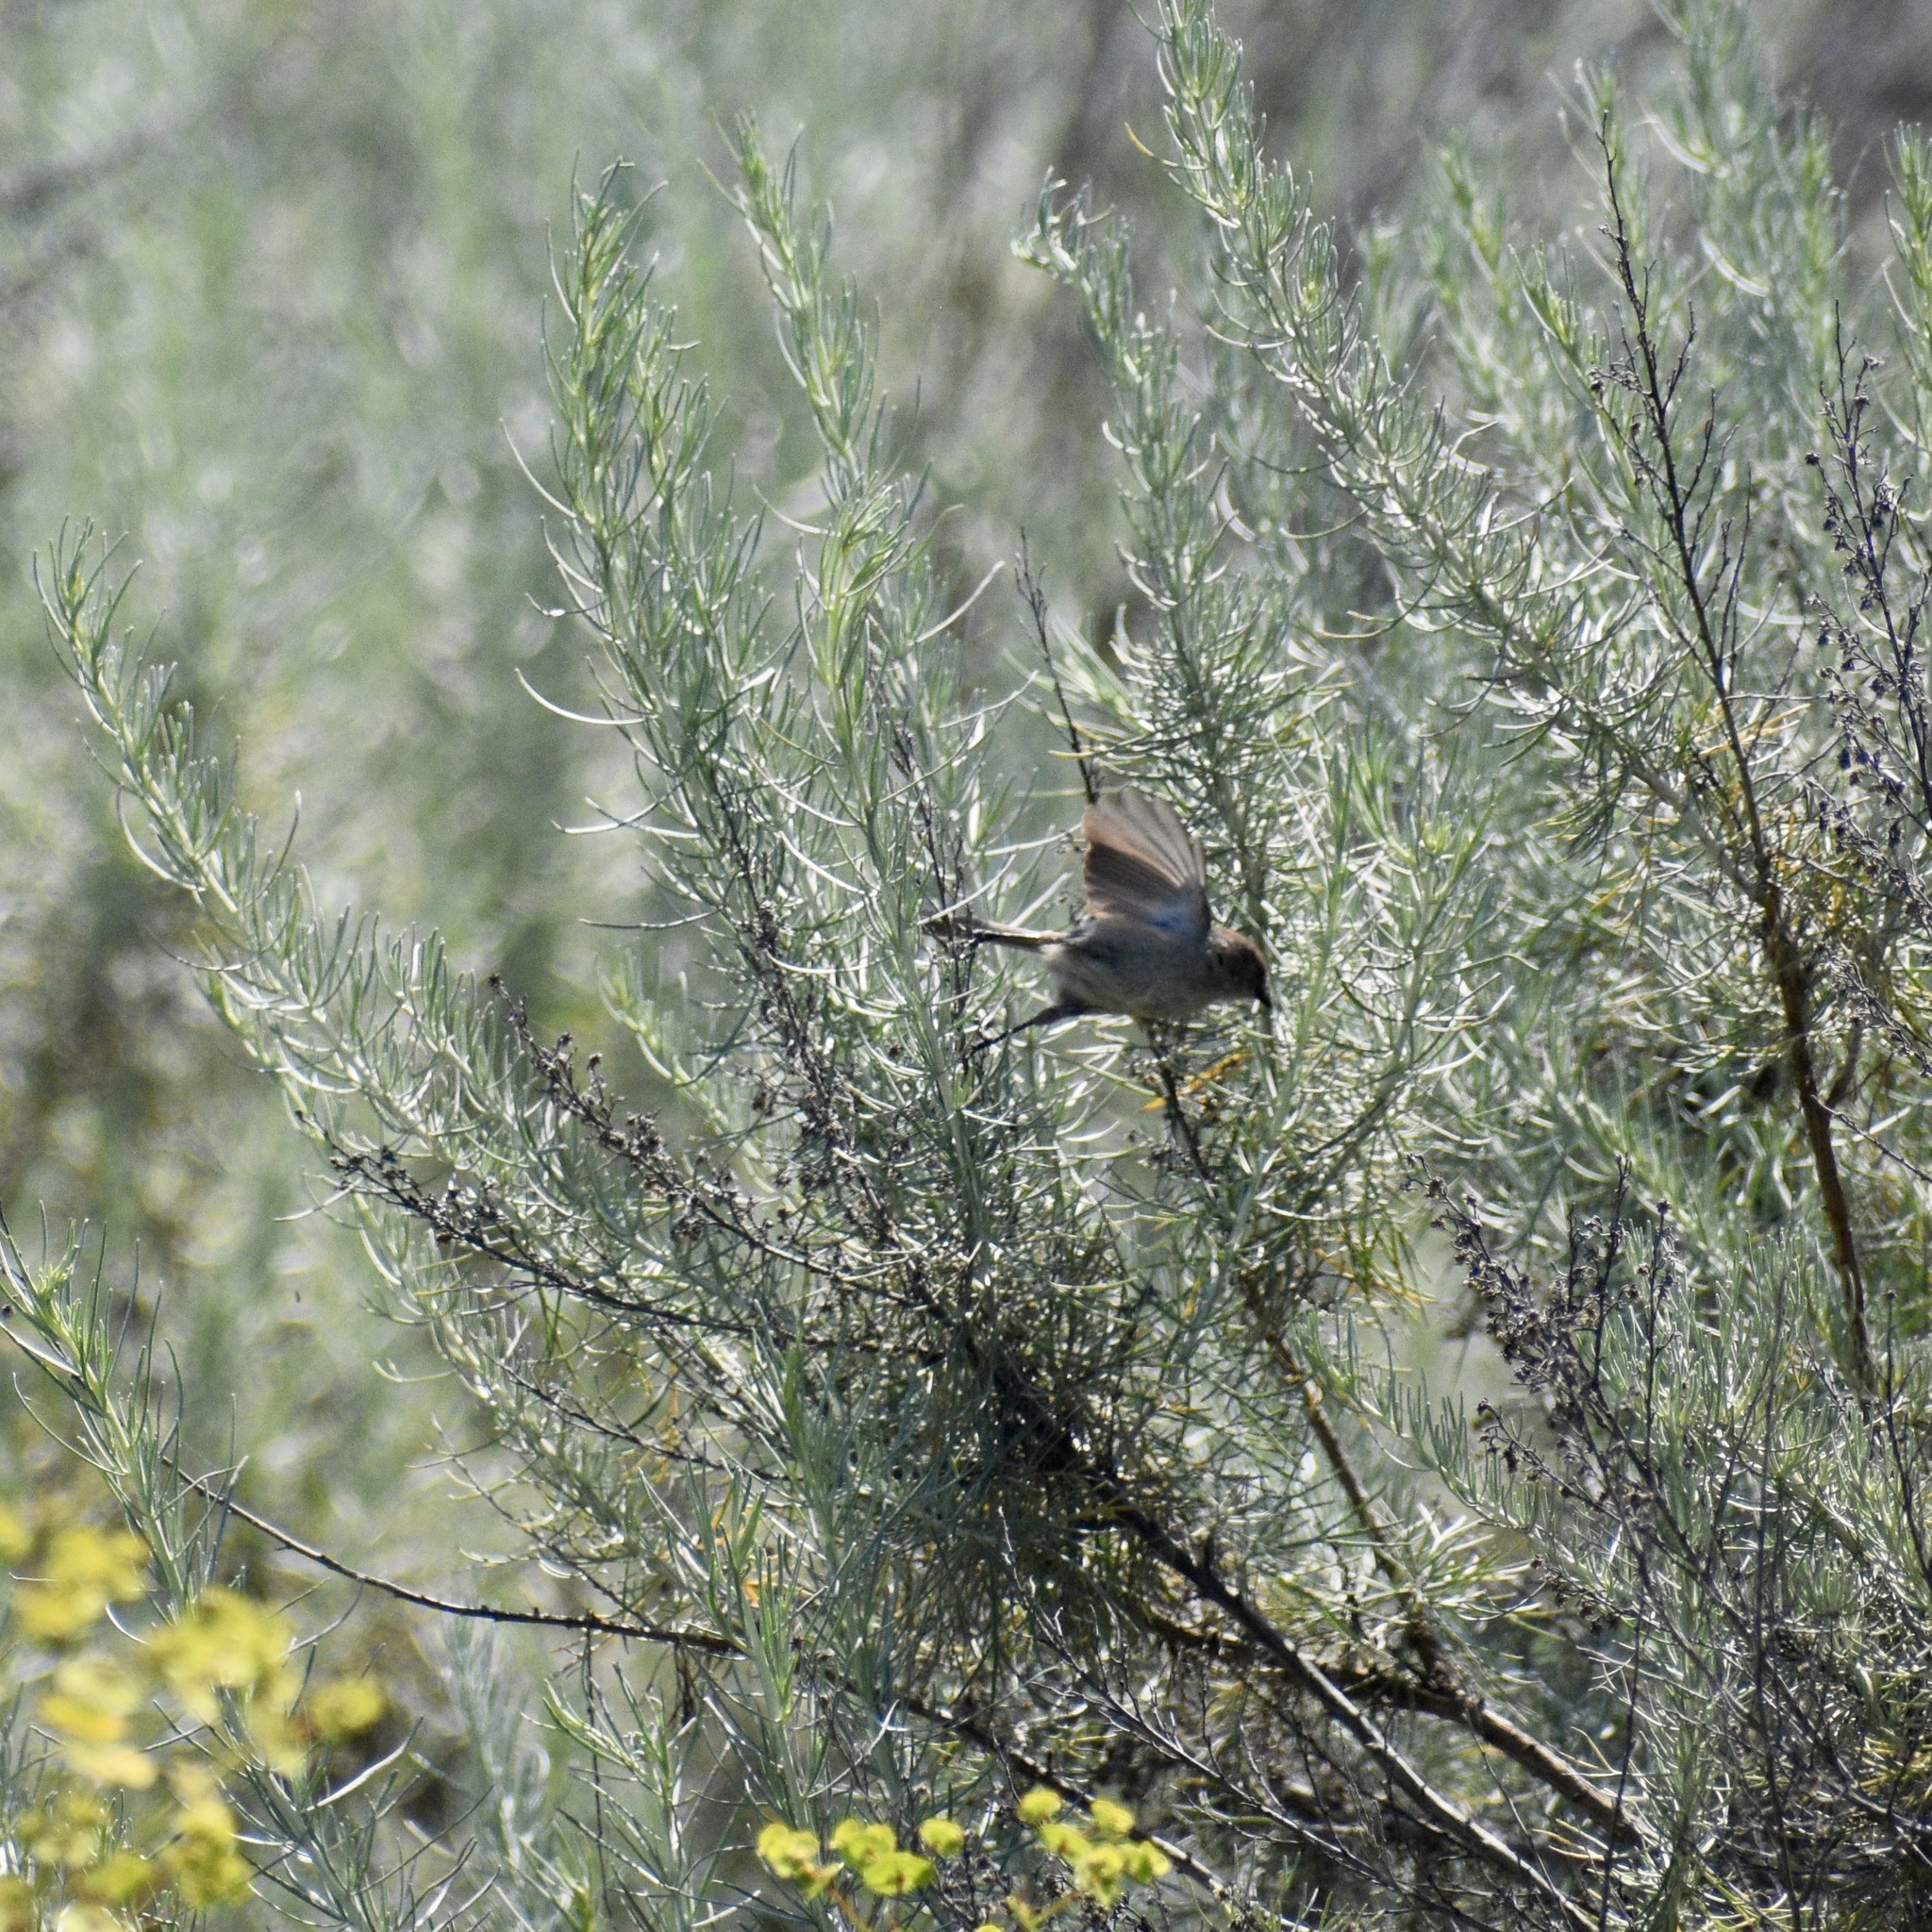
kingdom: Animalia
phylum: Chordata
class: Aves
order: Passeriformes
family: Aegithalidae
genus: Psaltriparus
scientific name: Psaltriparus minimus
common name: American bushtit
